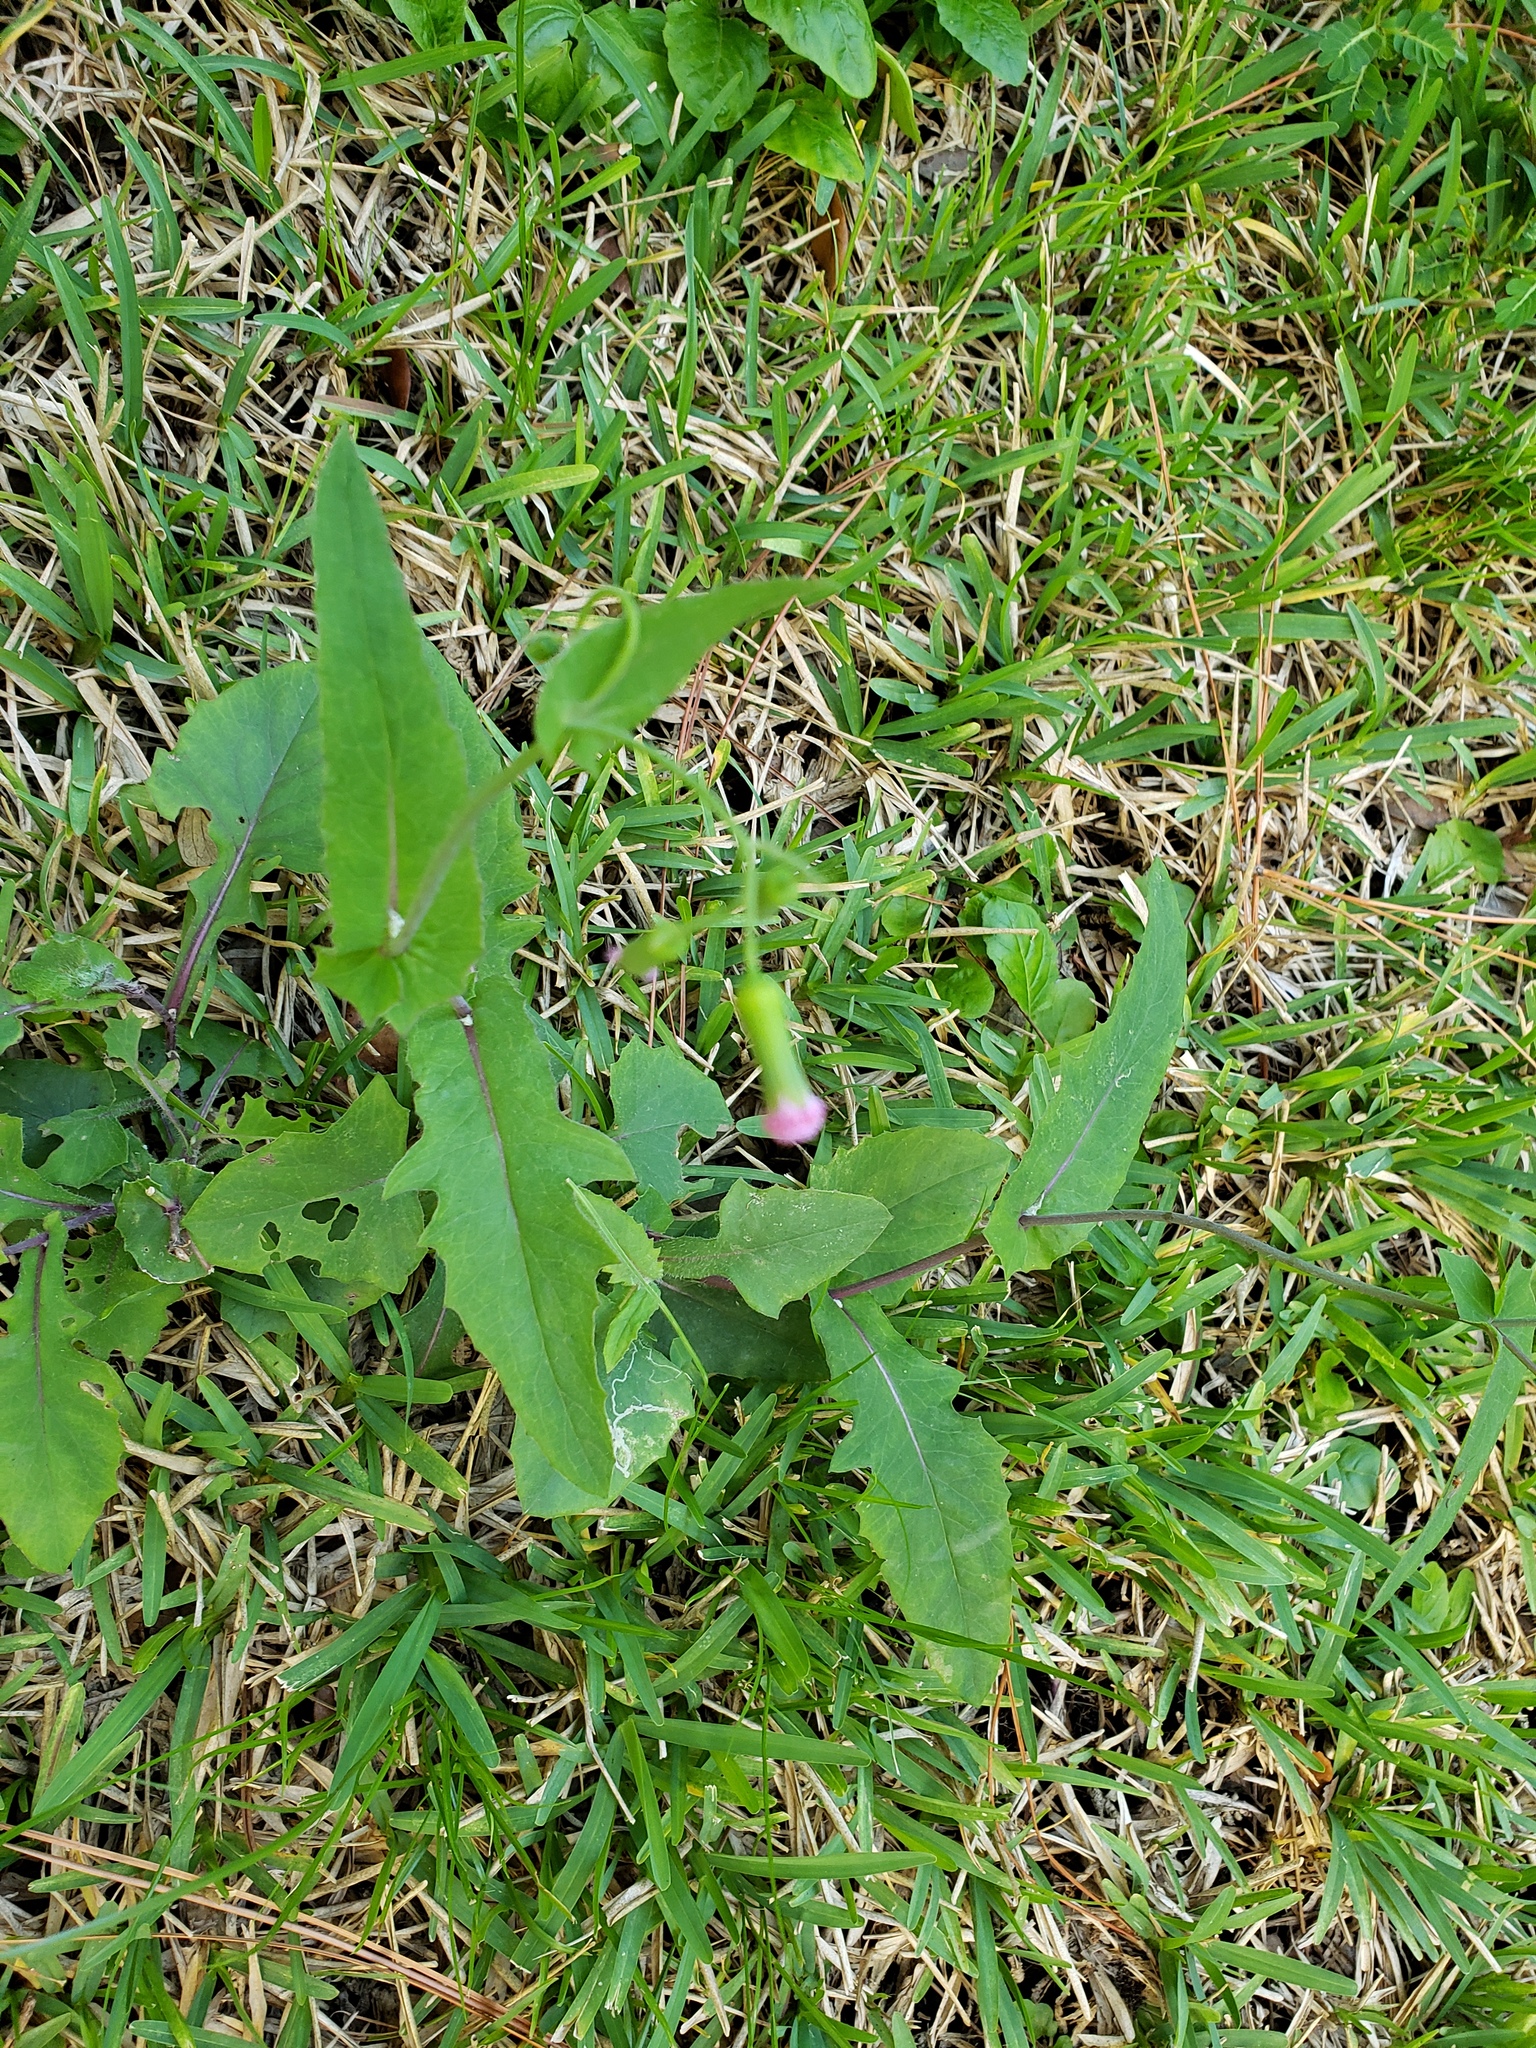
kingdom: Plantae
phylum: Tracheophyta
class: Magnoliopsida
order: Asterales
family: Asteraceae
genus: Emilia
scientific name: Emilia sonchifolia
